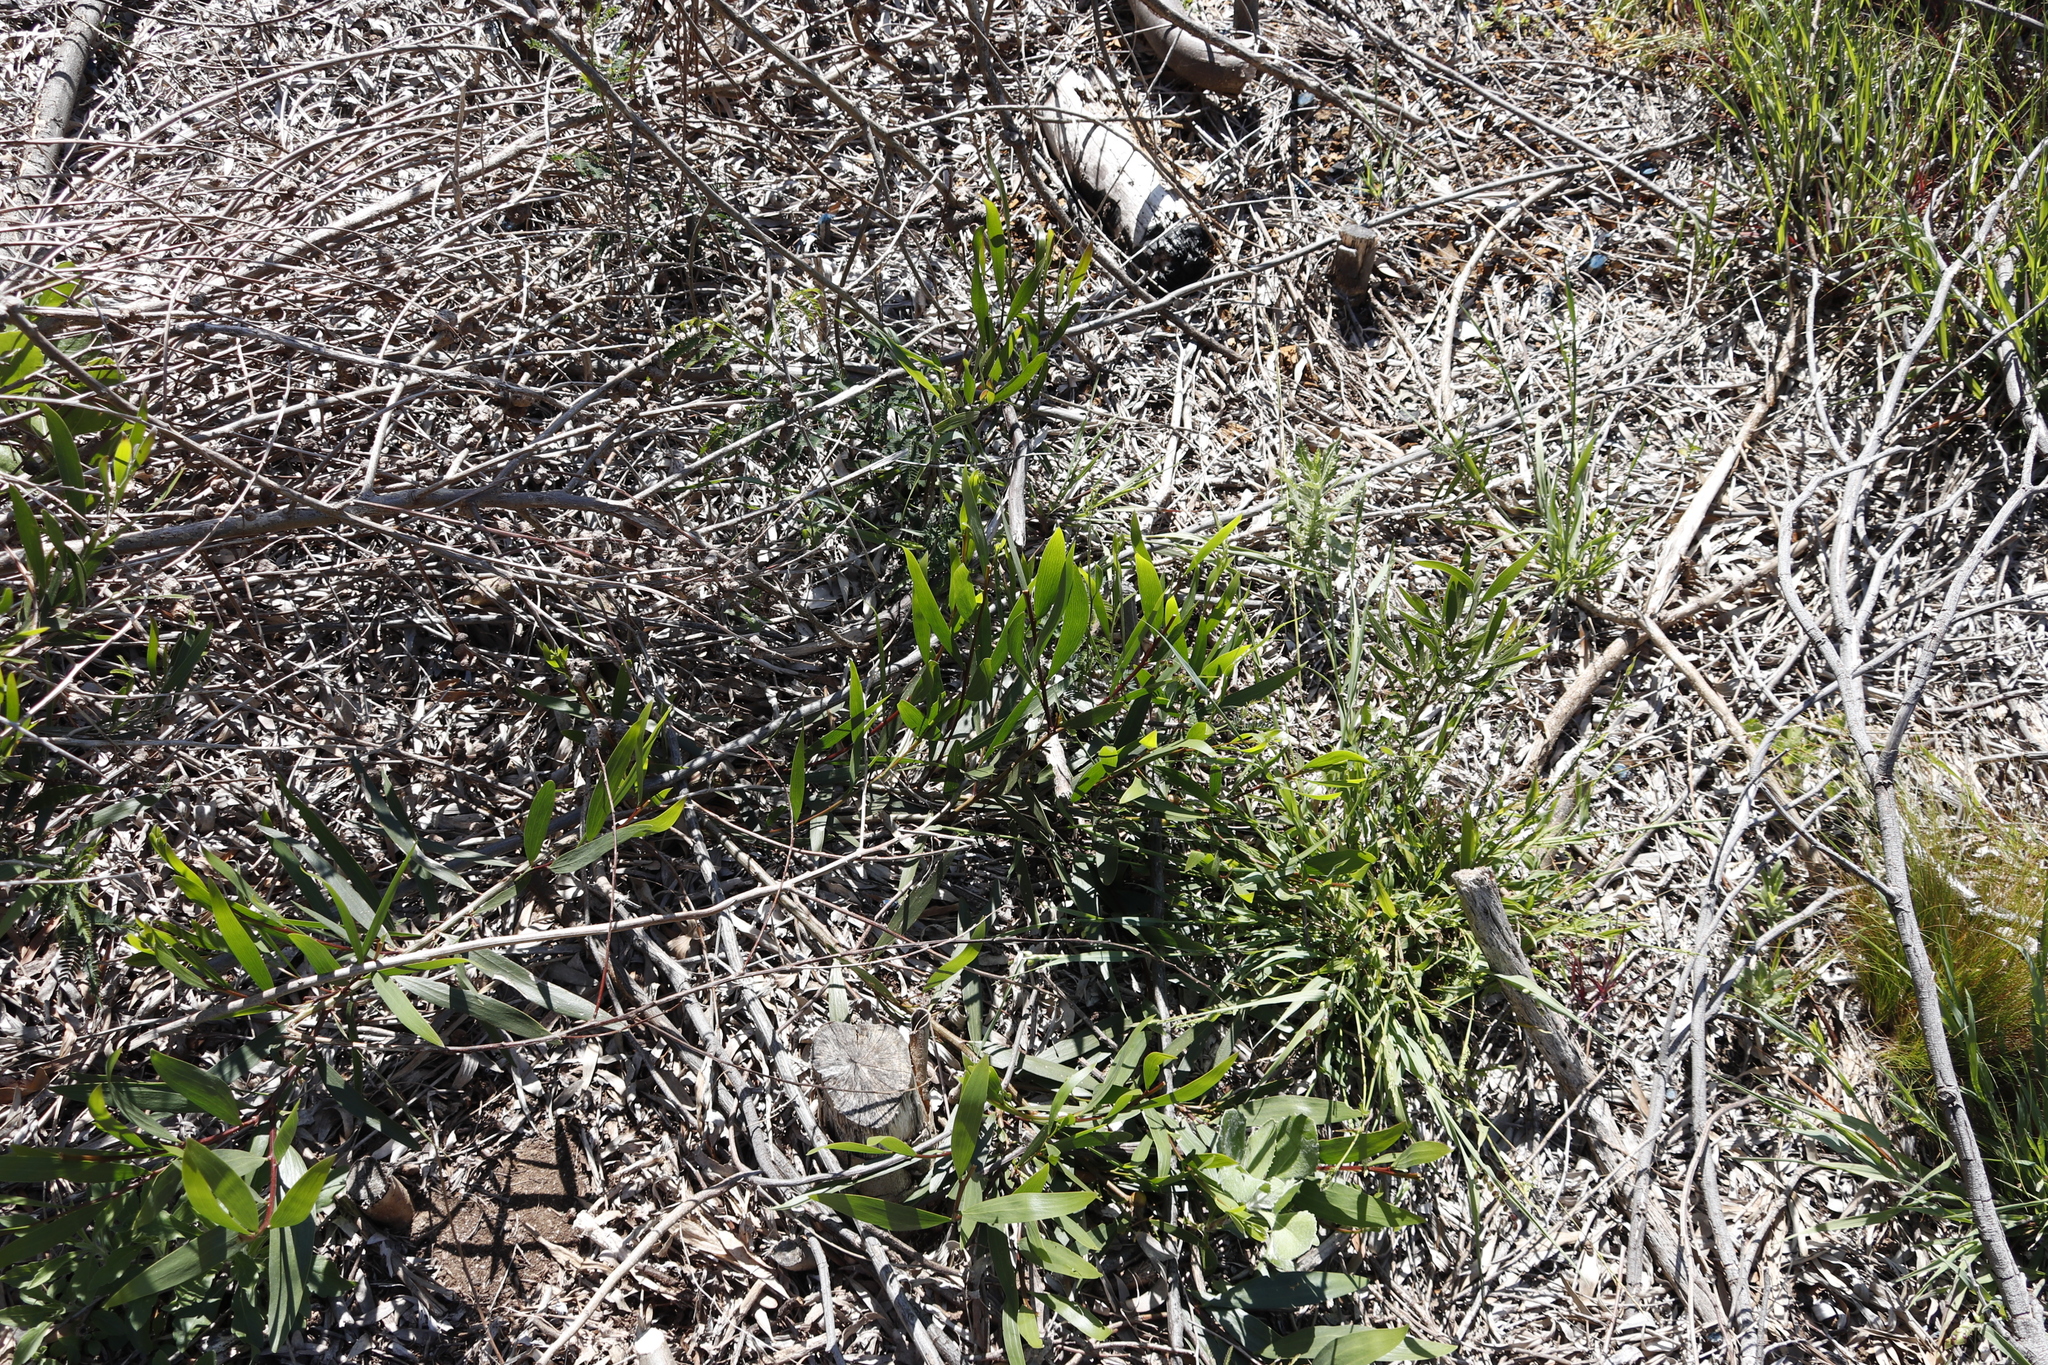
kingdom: Plantae
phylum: Tracheophyta
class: Magnoliopsida
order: Fabales
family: Fabaceae
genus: Acacia
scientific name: Acacia longifolia
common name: Sydney golden wattle
